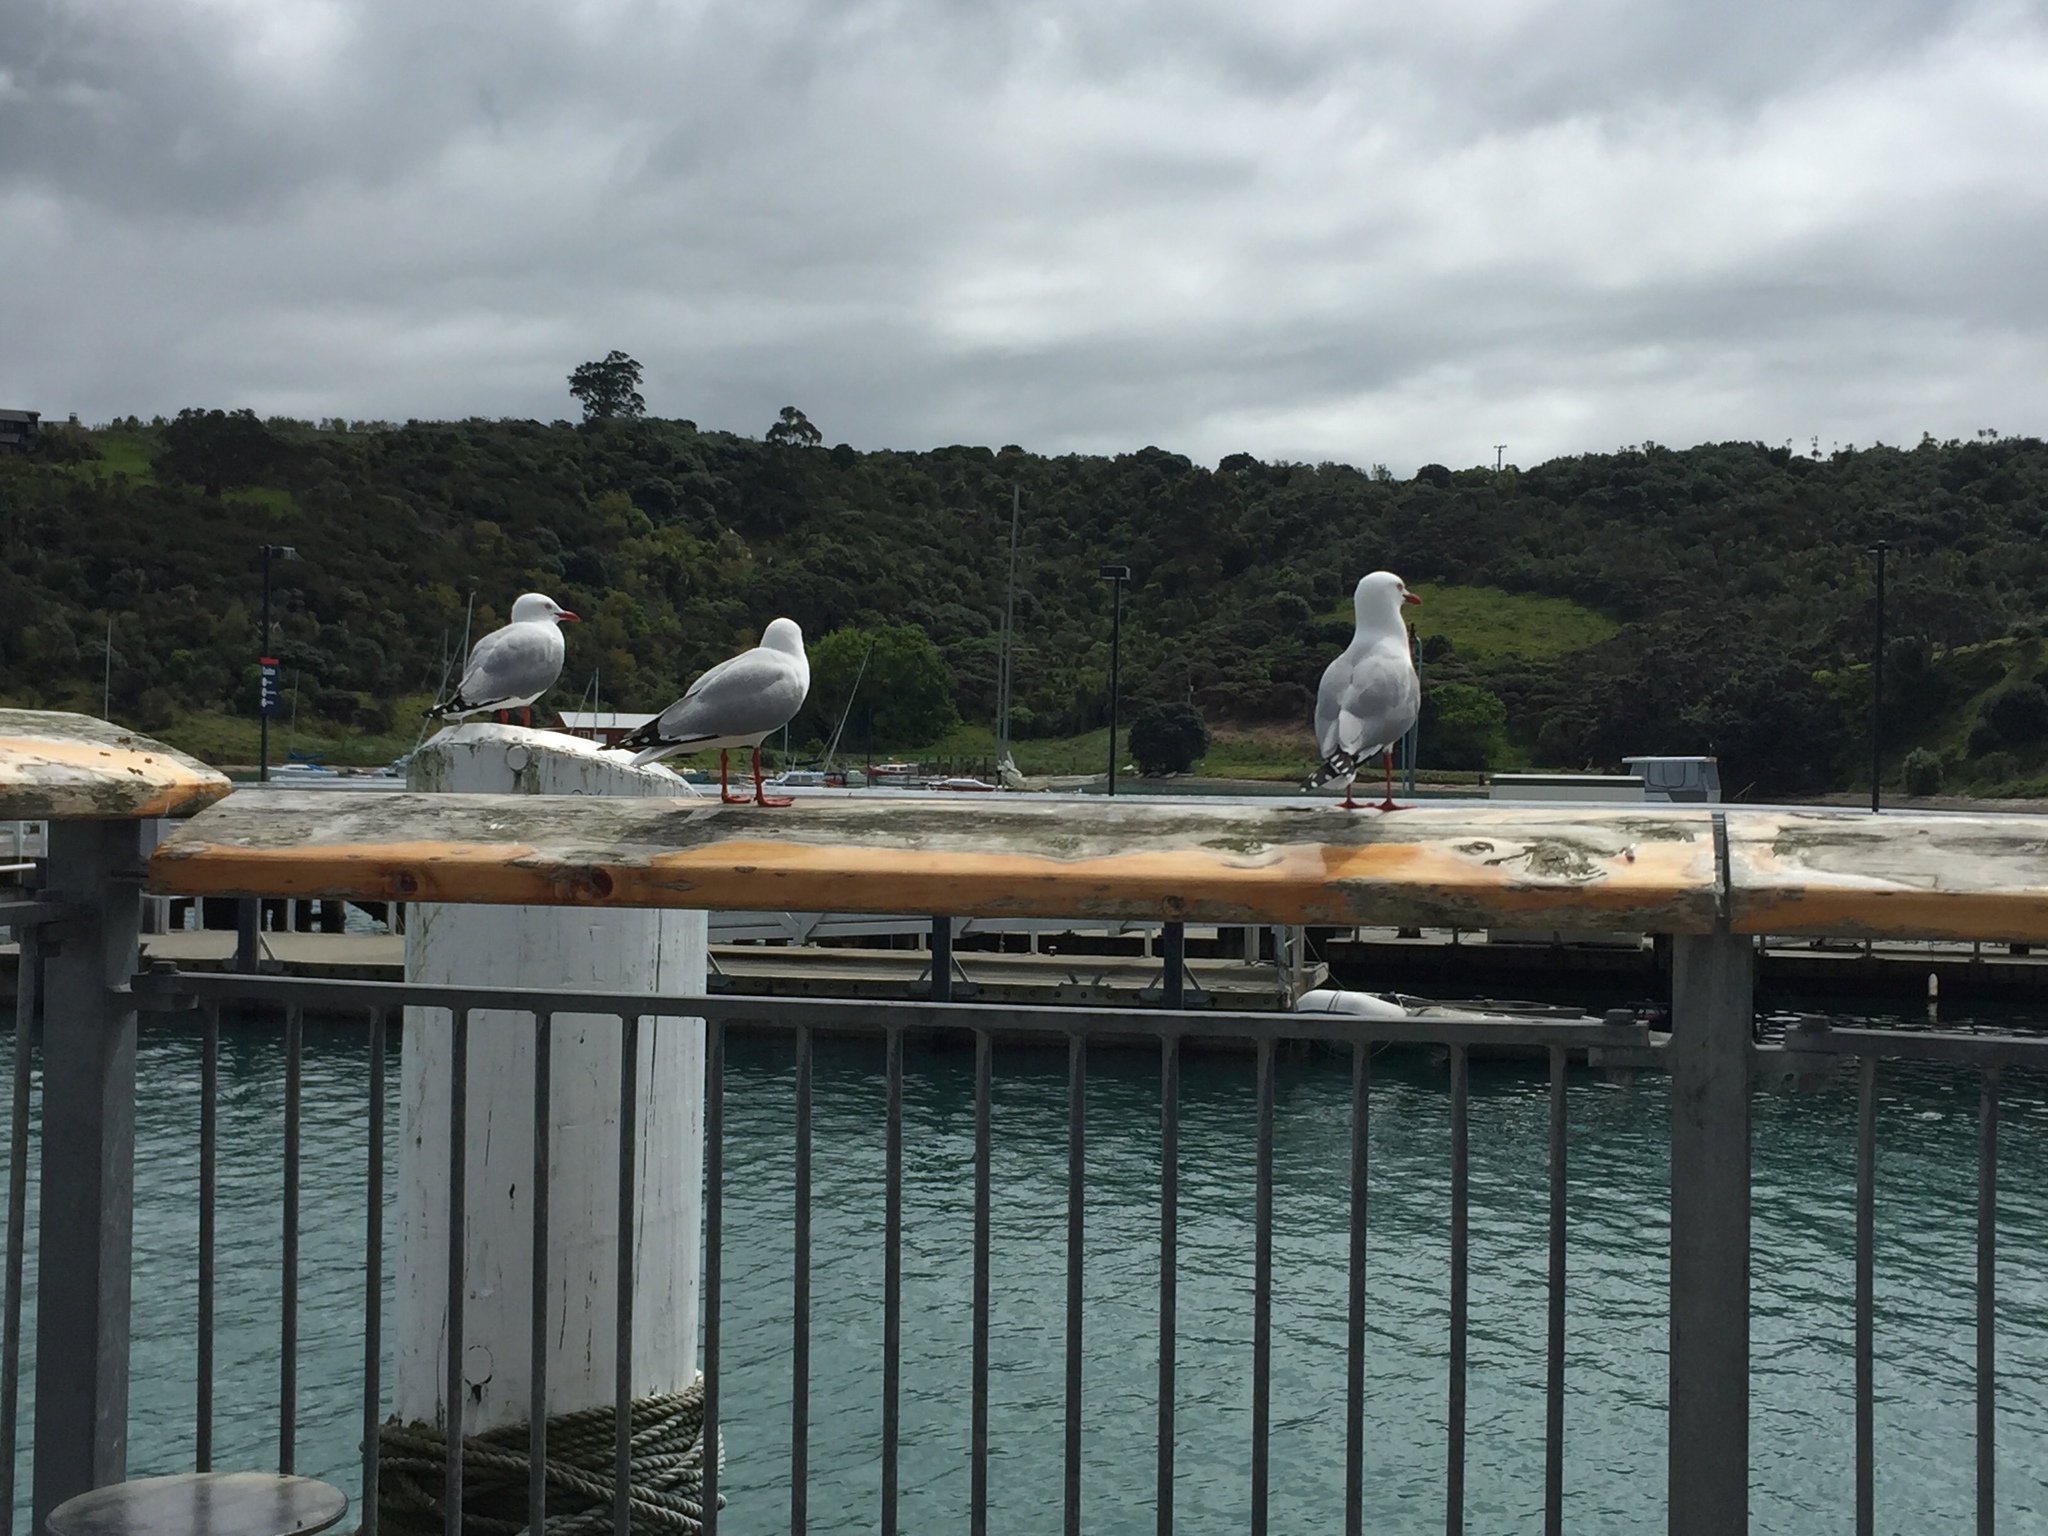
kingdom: Animalia
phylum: Chordata
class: Aves
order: Charadriiformes
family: Laridae
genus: Chroicocephalus
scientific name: Chroicocephalus novaehollandiae
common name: Silver gull
